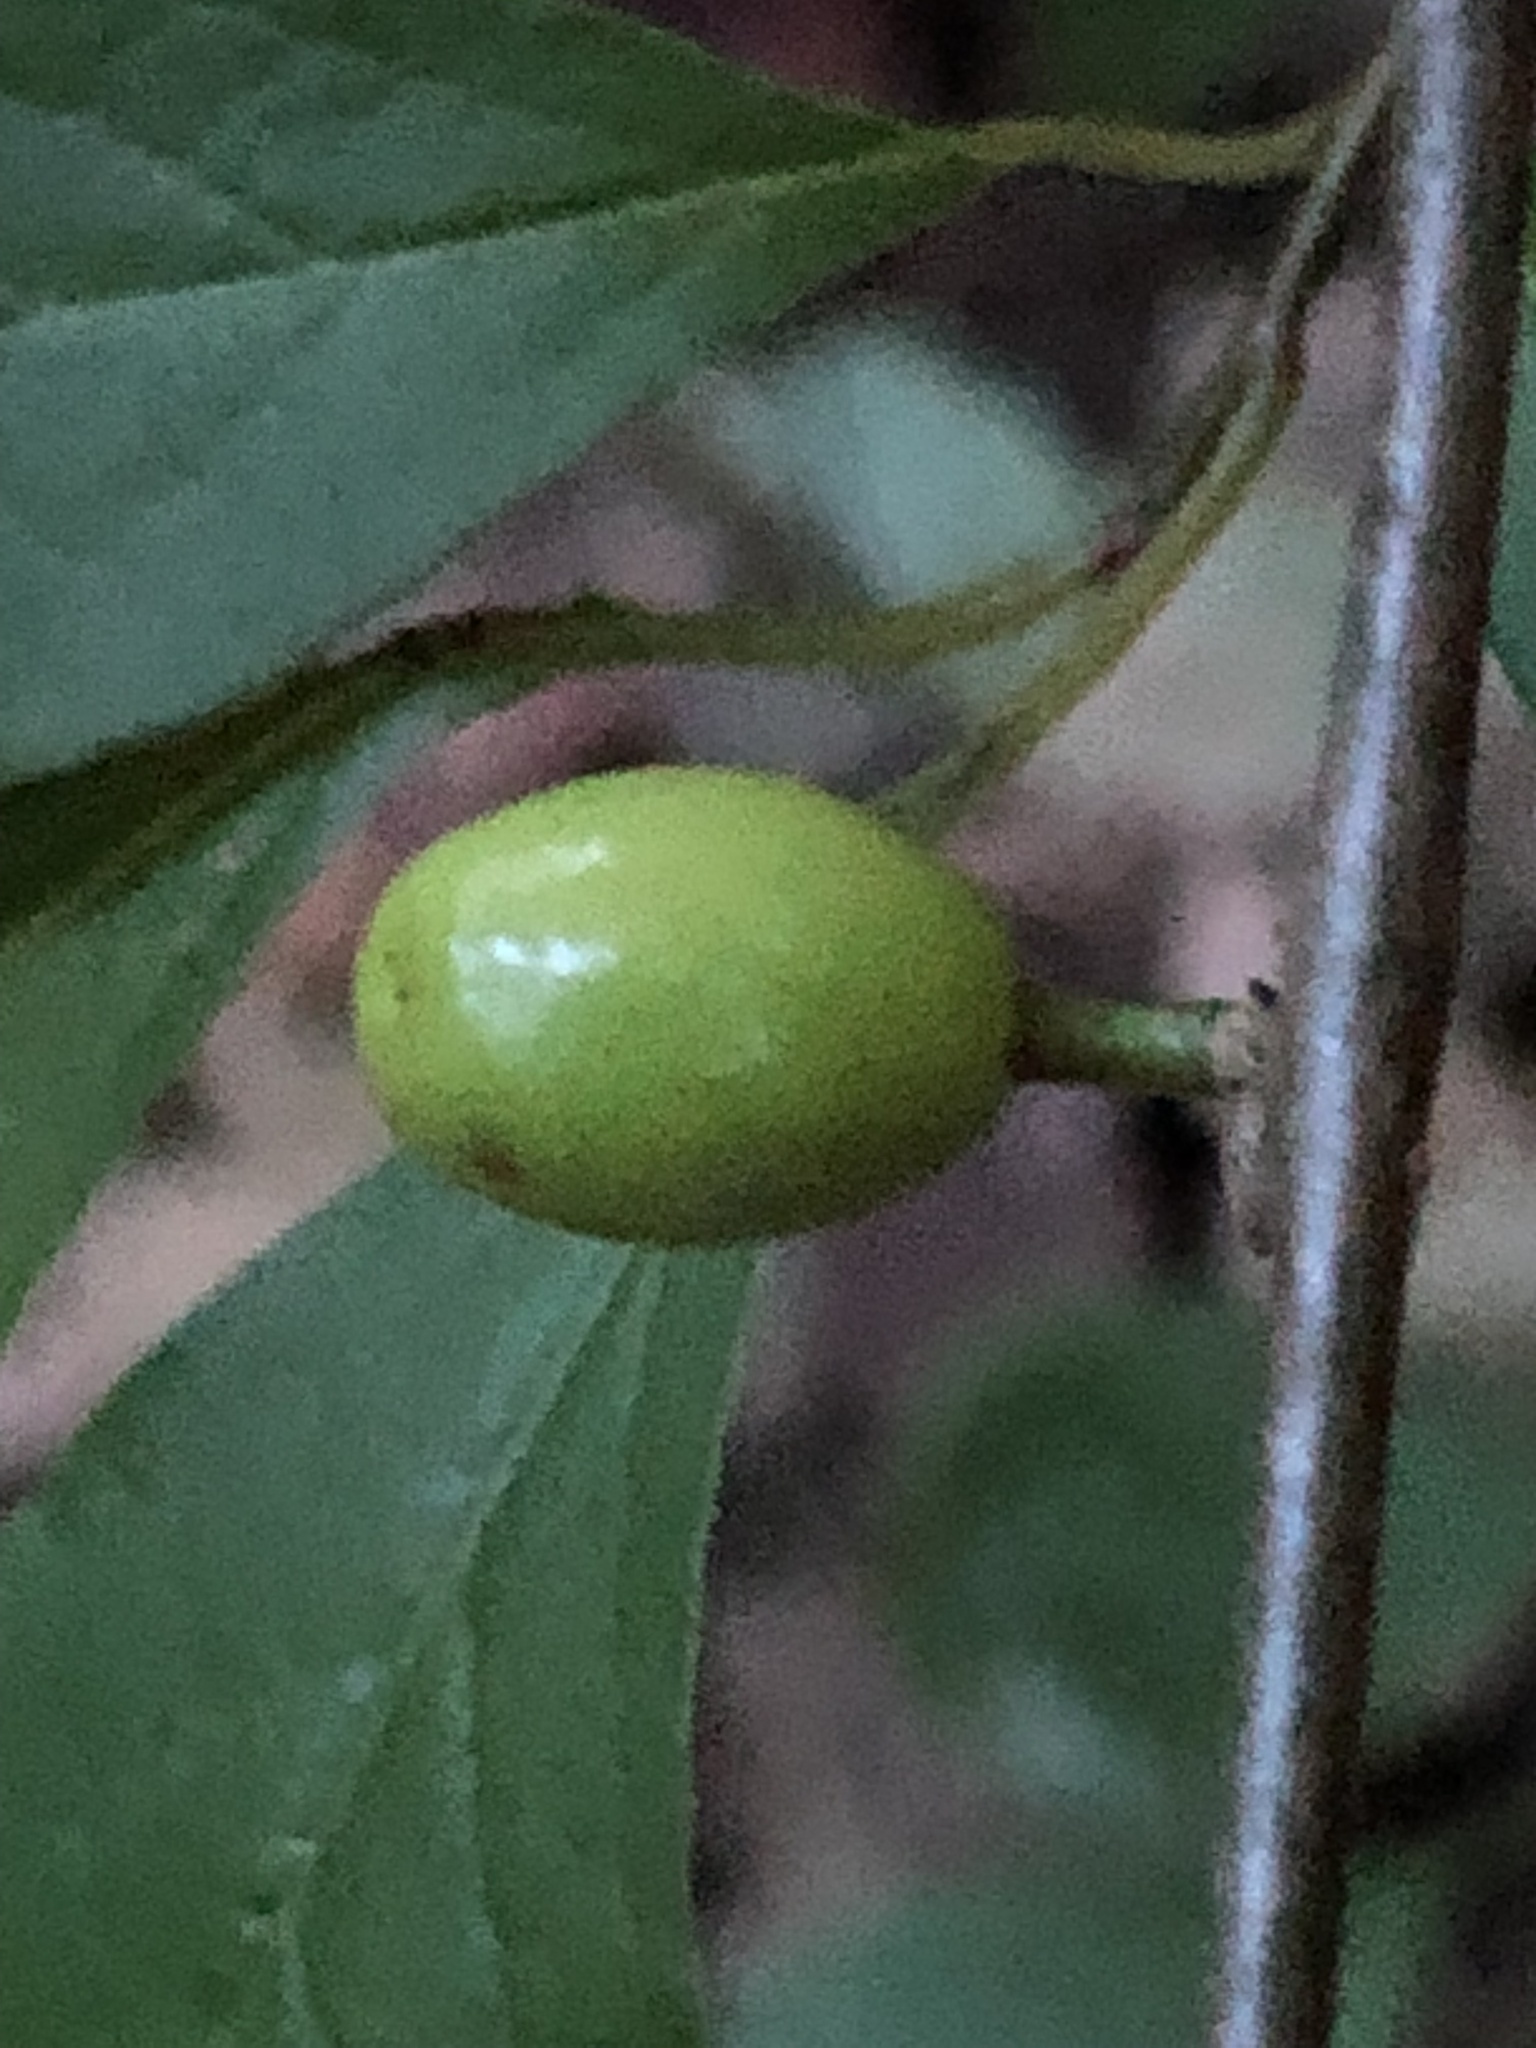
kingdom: Plantae
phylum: Tracheophyta
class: Magnoliopsida
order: Laurales
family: Lauraceae
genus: Lindera
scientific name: Lindera benzoin
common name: Spicebush
